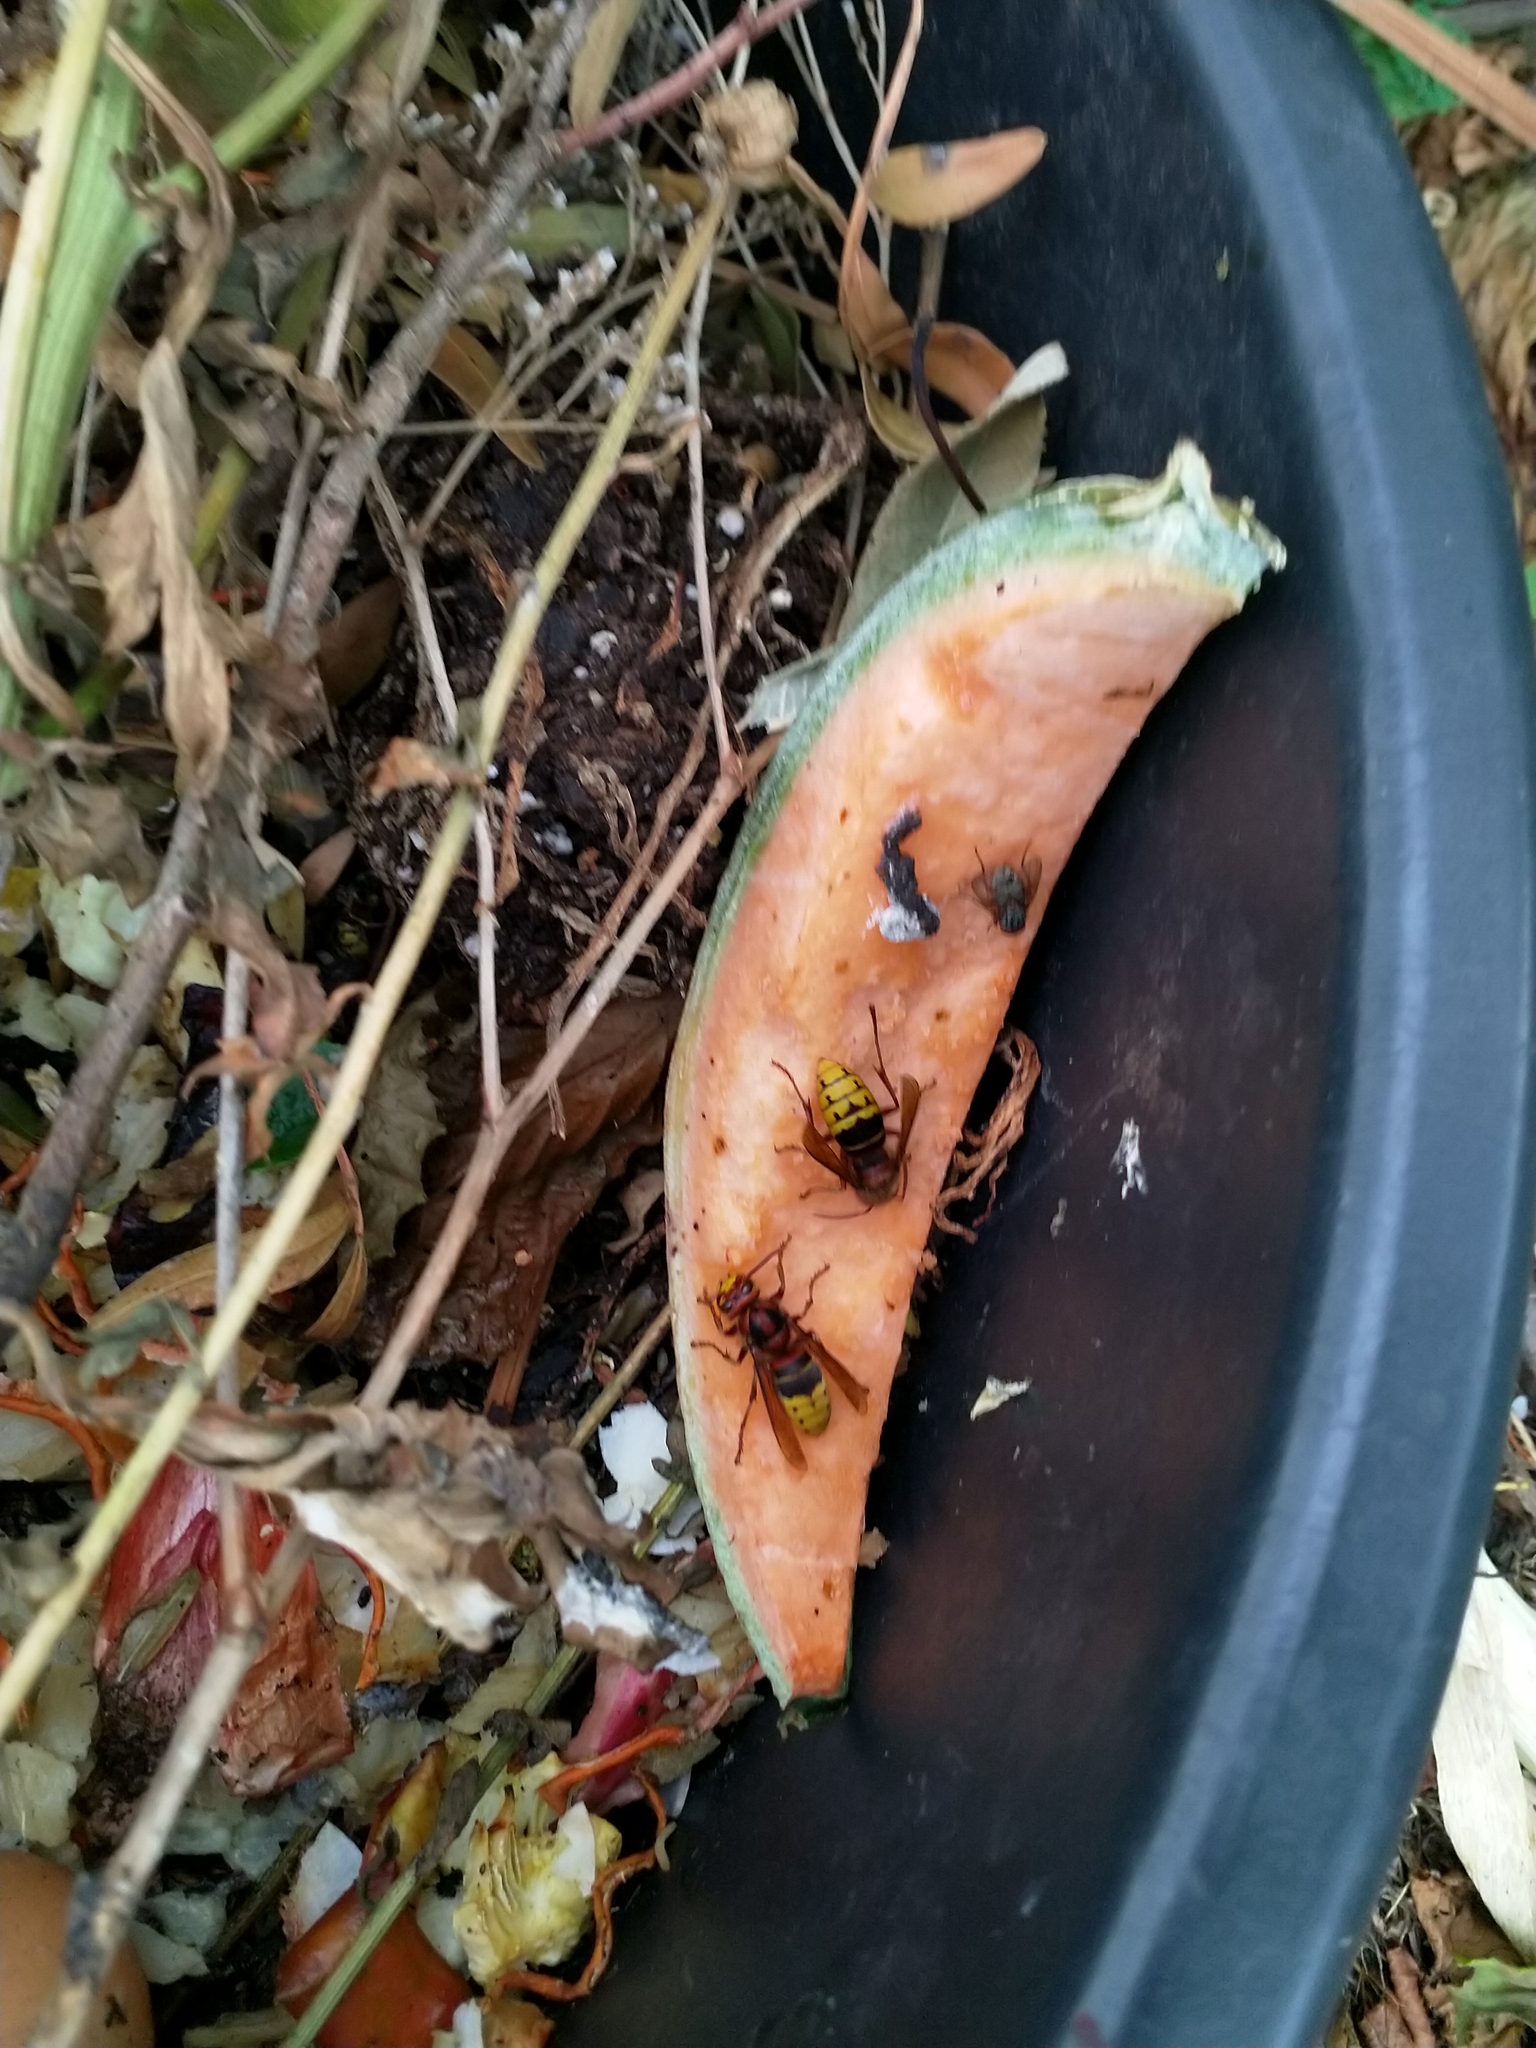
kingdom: Animalia
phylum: Arthropoda
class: Insecta
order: Hymenoptera
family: Vespidae
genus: Vespa
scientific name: Vespa crabro
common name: Hornet
